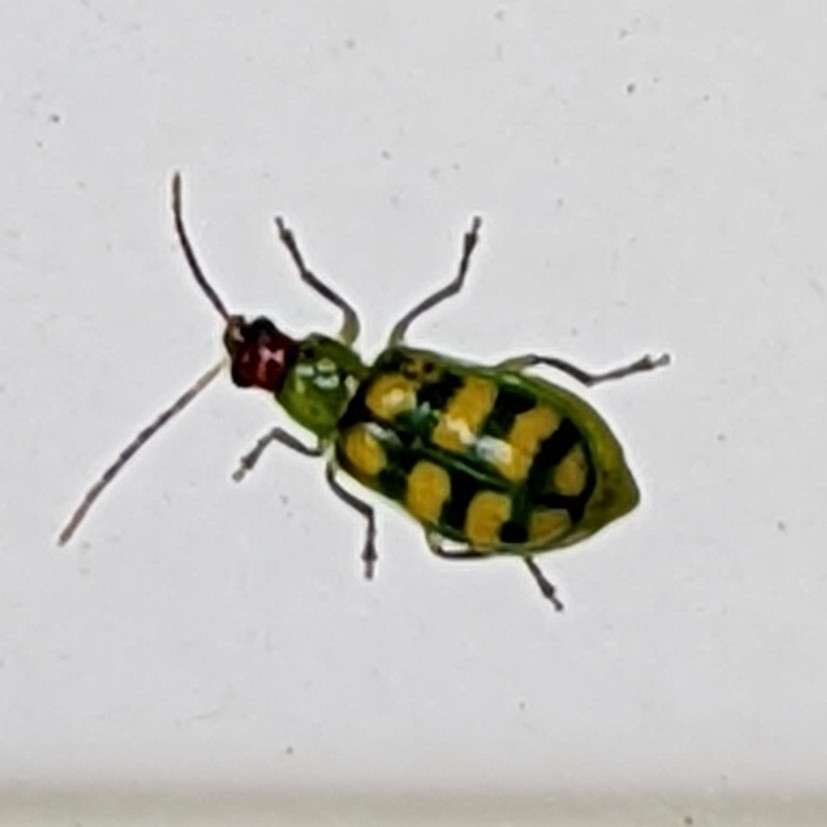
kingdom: Animalia
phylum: Arthropoda
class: Insecta
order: Coleoptera
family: Chrysomelidae
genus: Diabrotica
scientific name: Diabrotica balteata
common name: Leaf beetle
